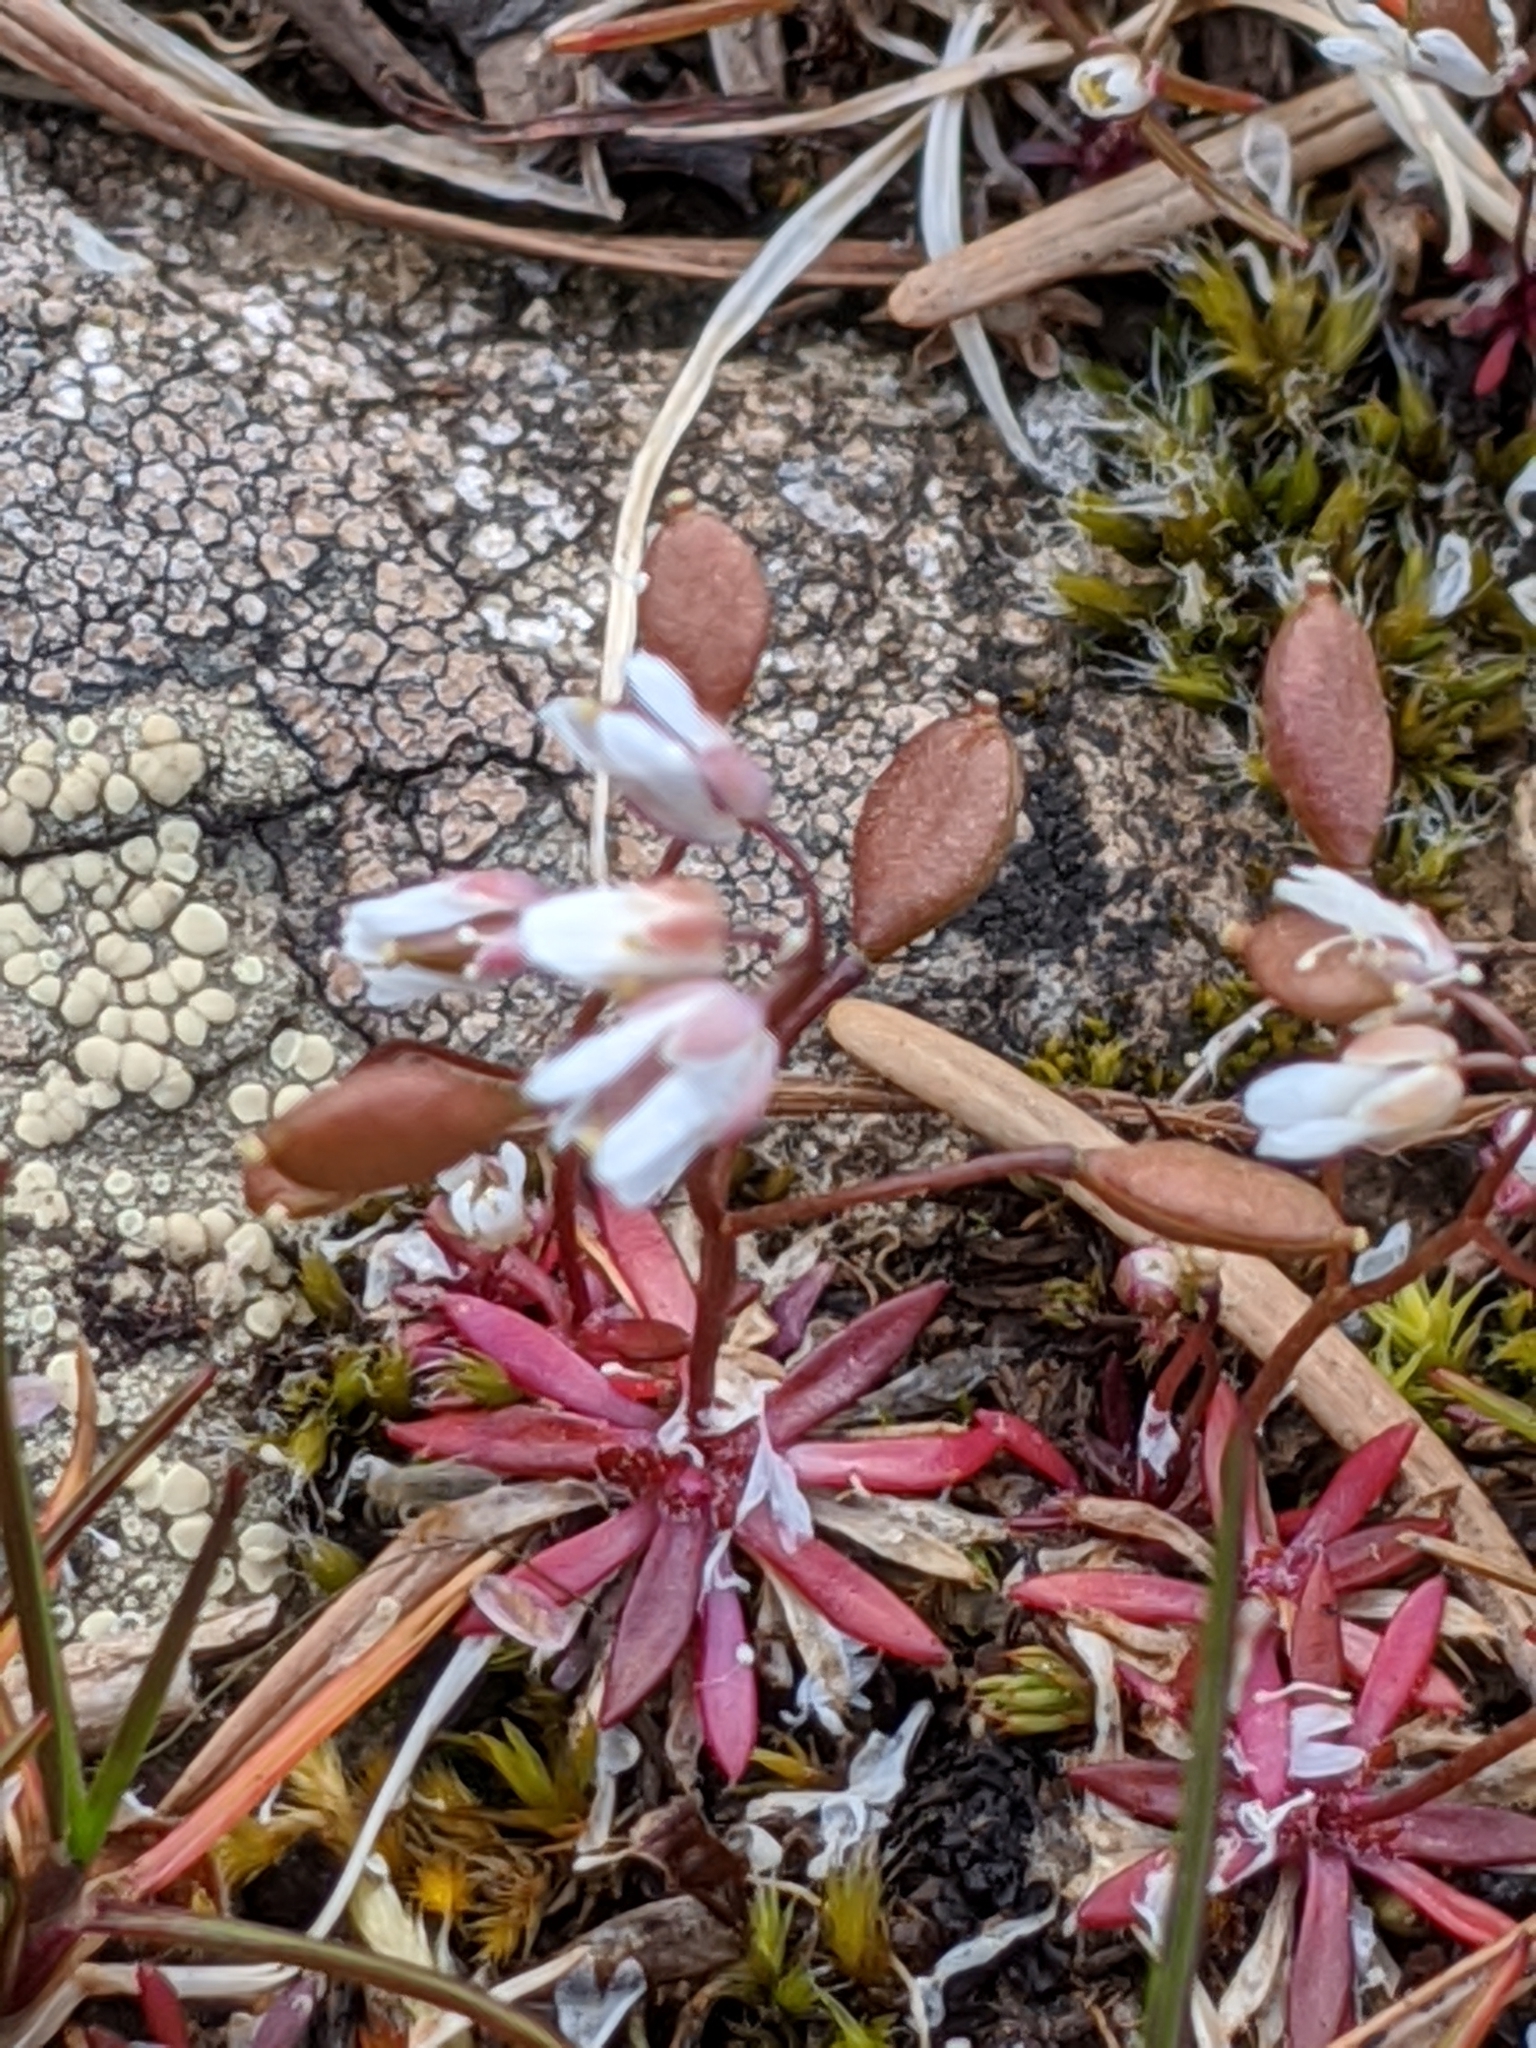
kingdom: Plantae
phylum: Tracheophyta
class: Magnoliopsida
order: Brassicales
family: Brassicaceae
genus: Draba
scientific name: Draba verna
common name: Spring draba
